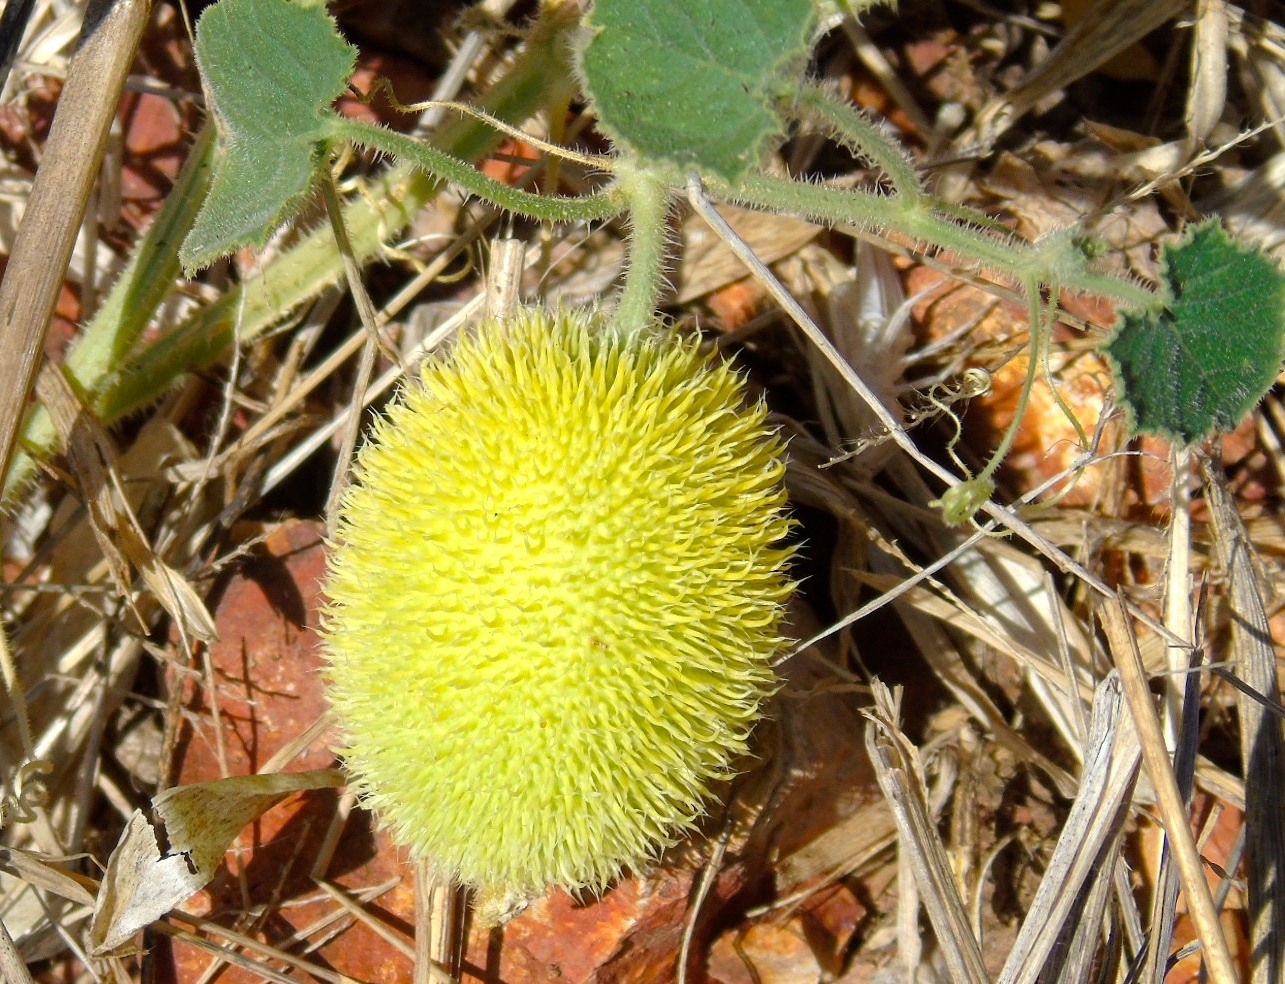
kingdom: Plantae
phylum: Tracheophyta
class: Magnoliopsida
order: Cucurbitales
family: Cucurbitaceae
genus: Cucumis
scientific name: Cucumis dipsaceus
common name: Hedgehog gourd
